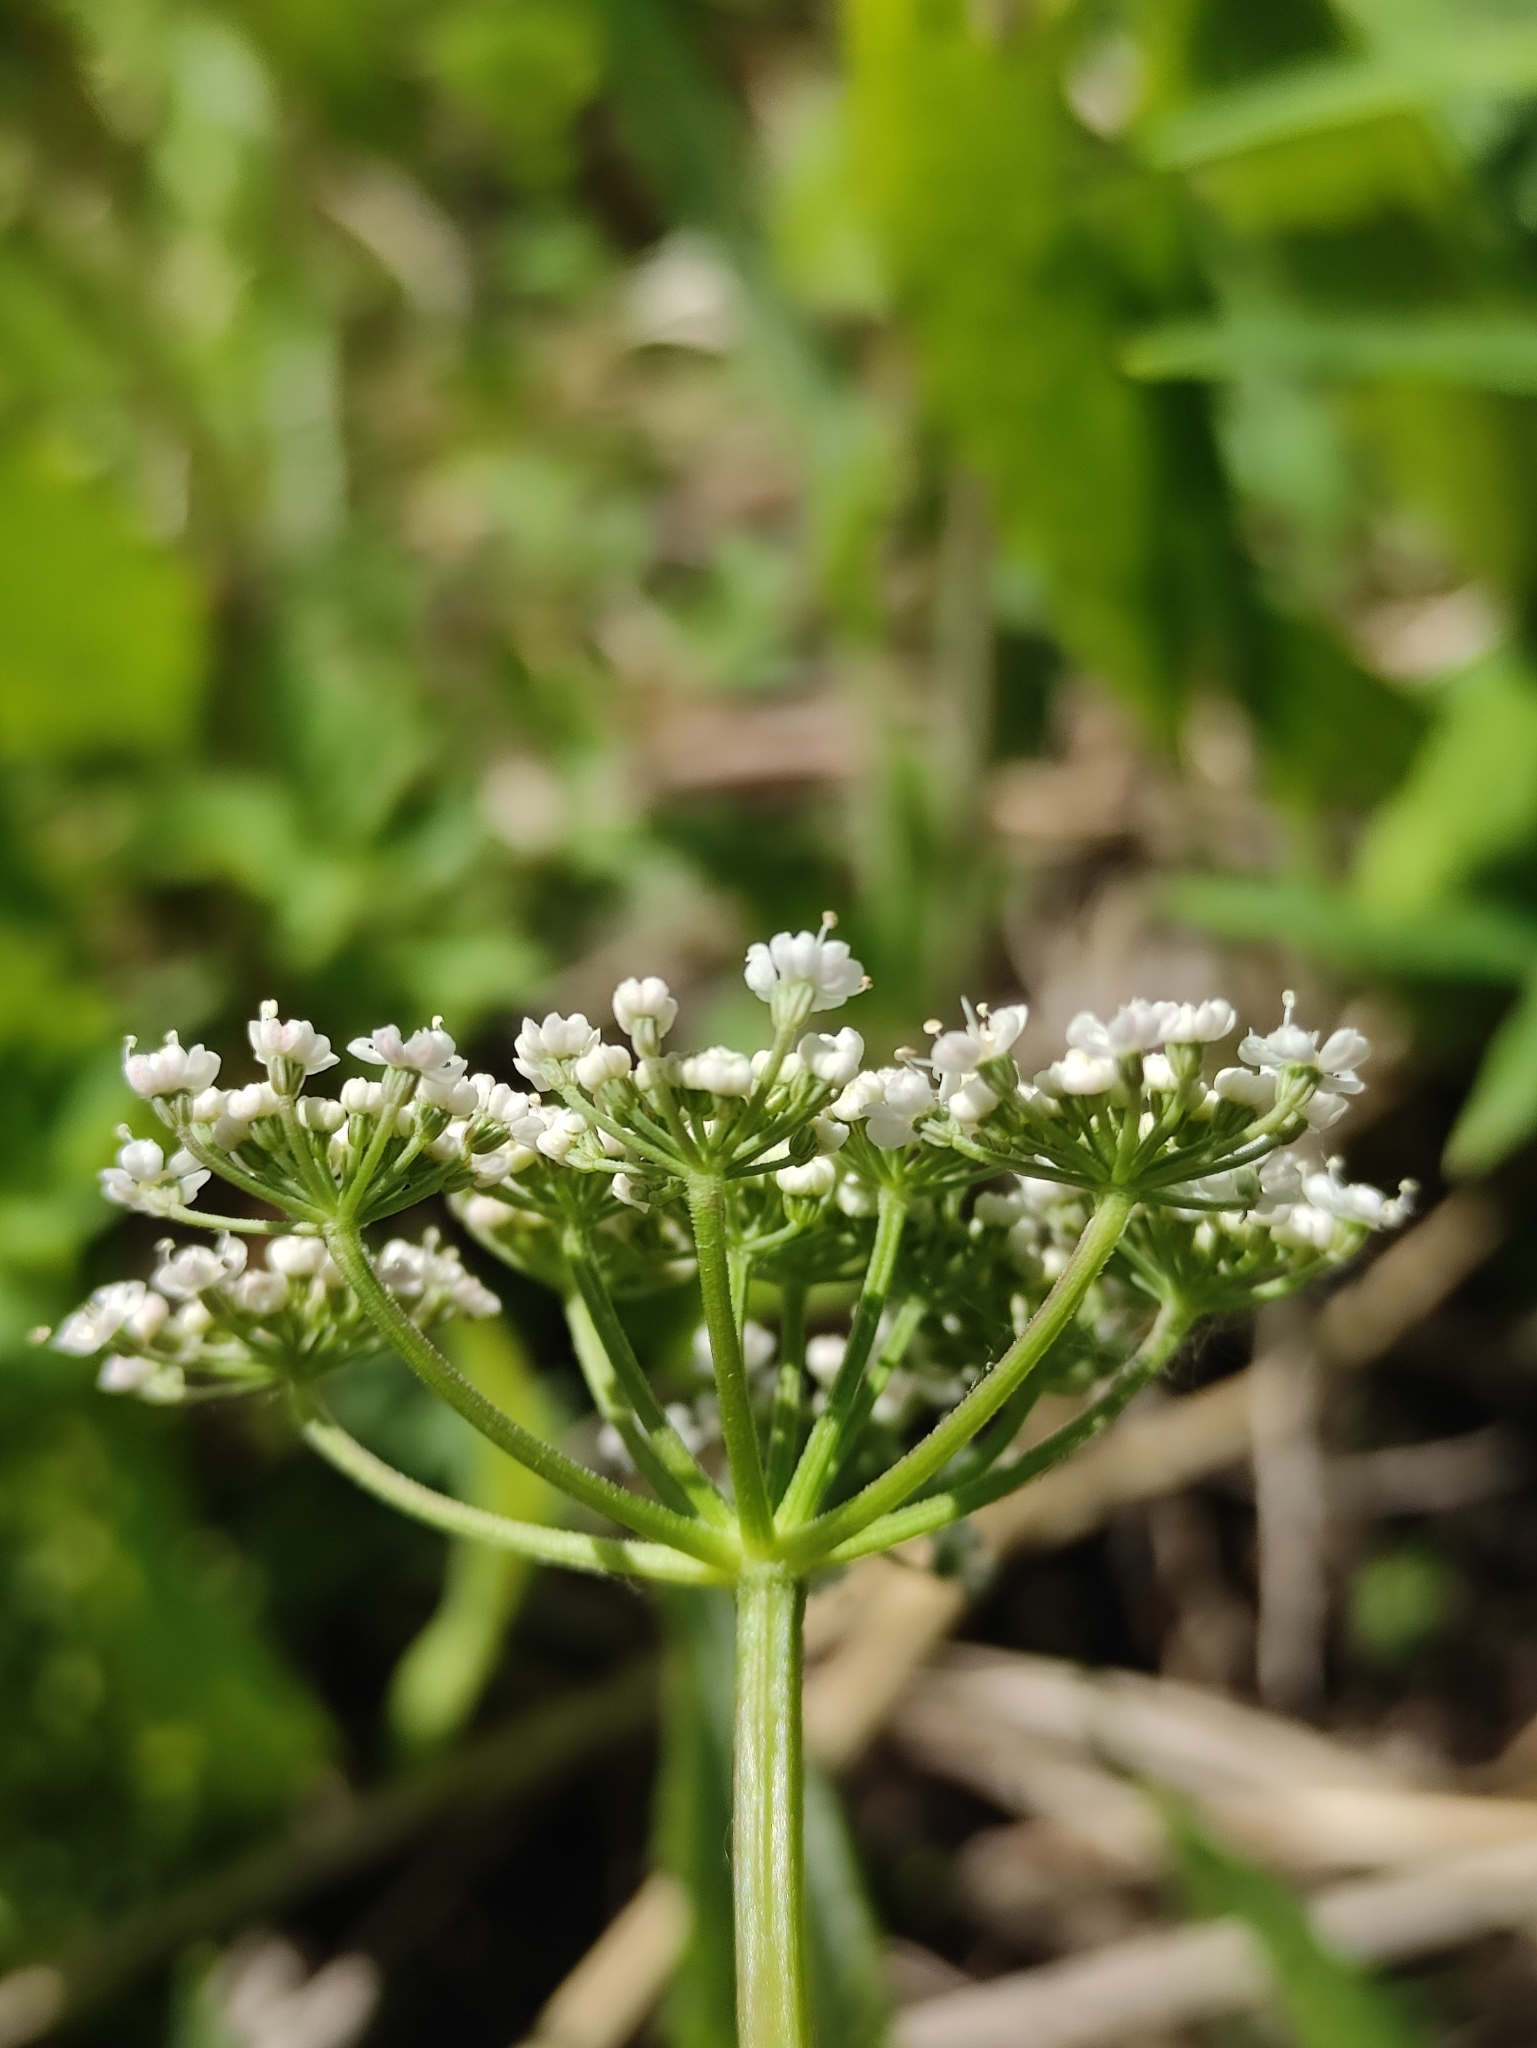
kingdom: Plantae
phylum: Tracheophyta
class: Magnoliopsida
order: Apiales
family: Apiaceae
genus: Aegopodium
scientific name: Aegopodium alpestre
